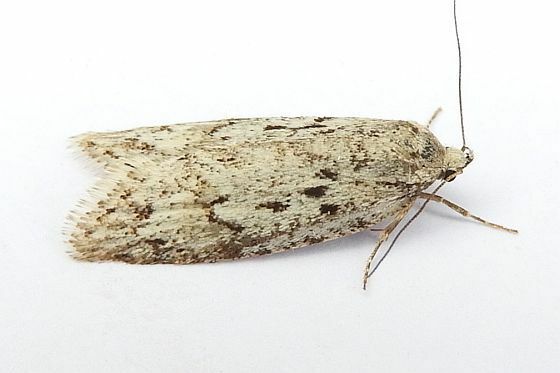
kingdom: Animalia
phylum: Arthropoda
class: Insecta
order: Lepidoptera
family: Depressariidae
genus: Semioscopis
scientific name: Semioscopis megamicrella
